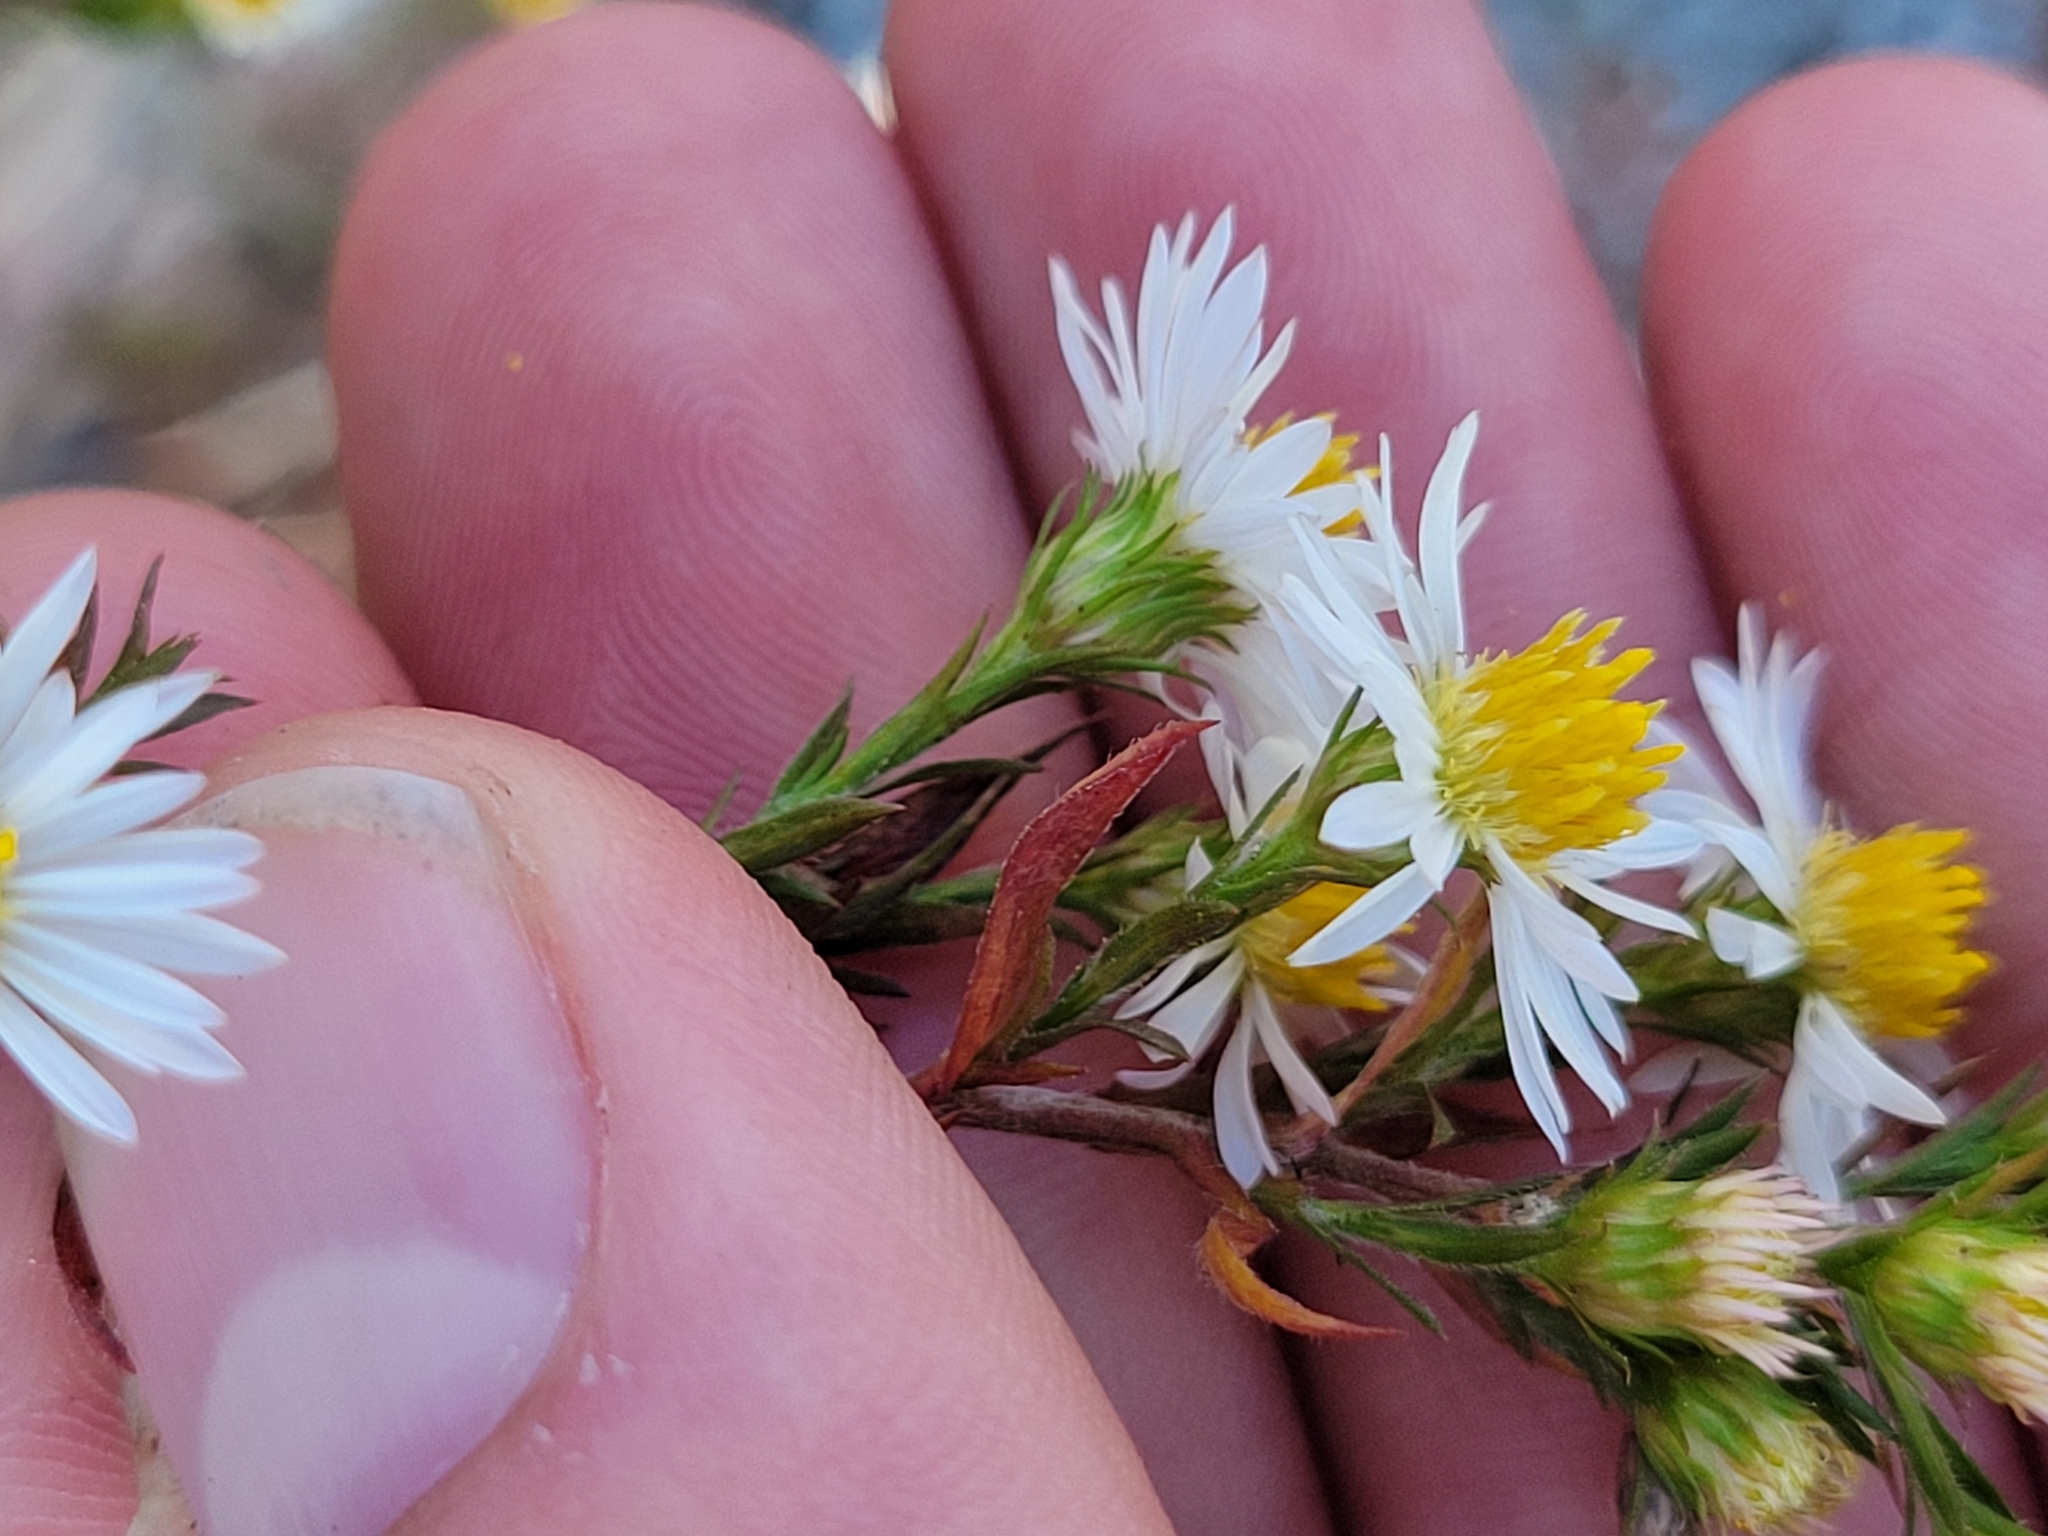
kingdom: Plantae
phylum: Tracheophyta
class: Magnoliopsida
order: Asterales
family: Asteraceae
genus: Symphyotrichum
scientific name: Symphyotrichum pilosum
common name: Awl aster
